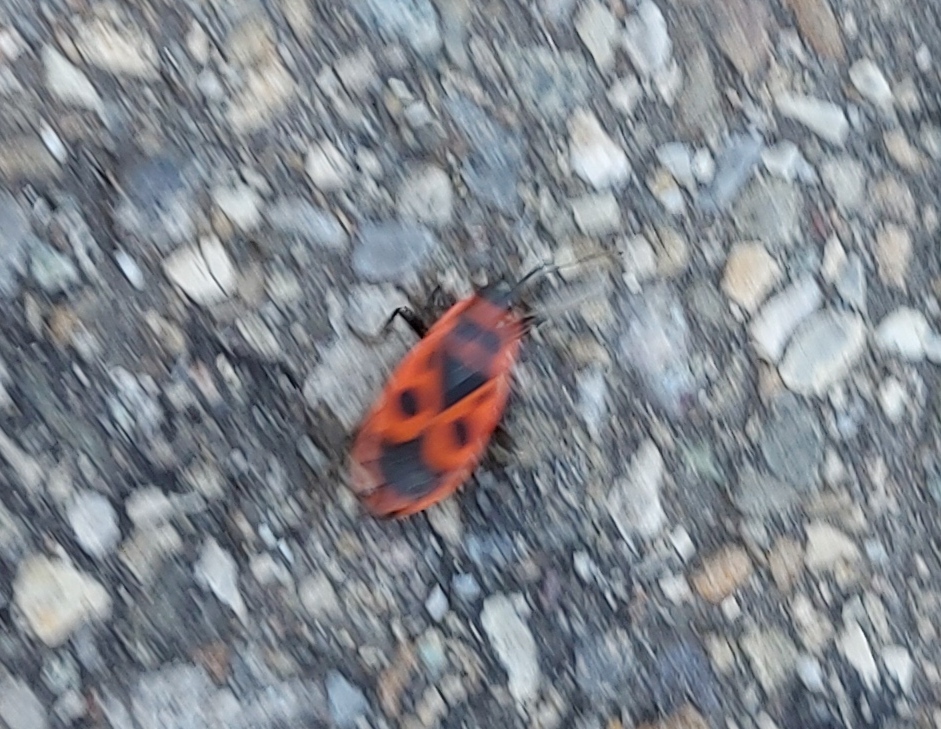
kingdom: Animalia
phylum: Arthropoda
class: Insecta
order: Hemiptera
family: Pyrrhocoridae
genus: Pyrrhocoris
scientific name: Pyrrhocoris apterus
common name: Firebug
